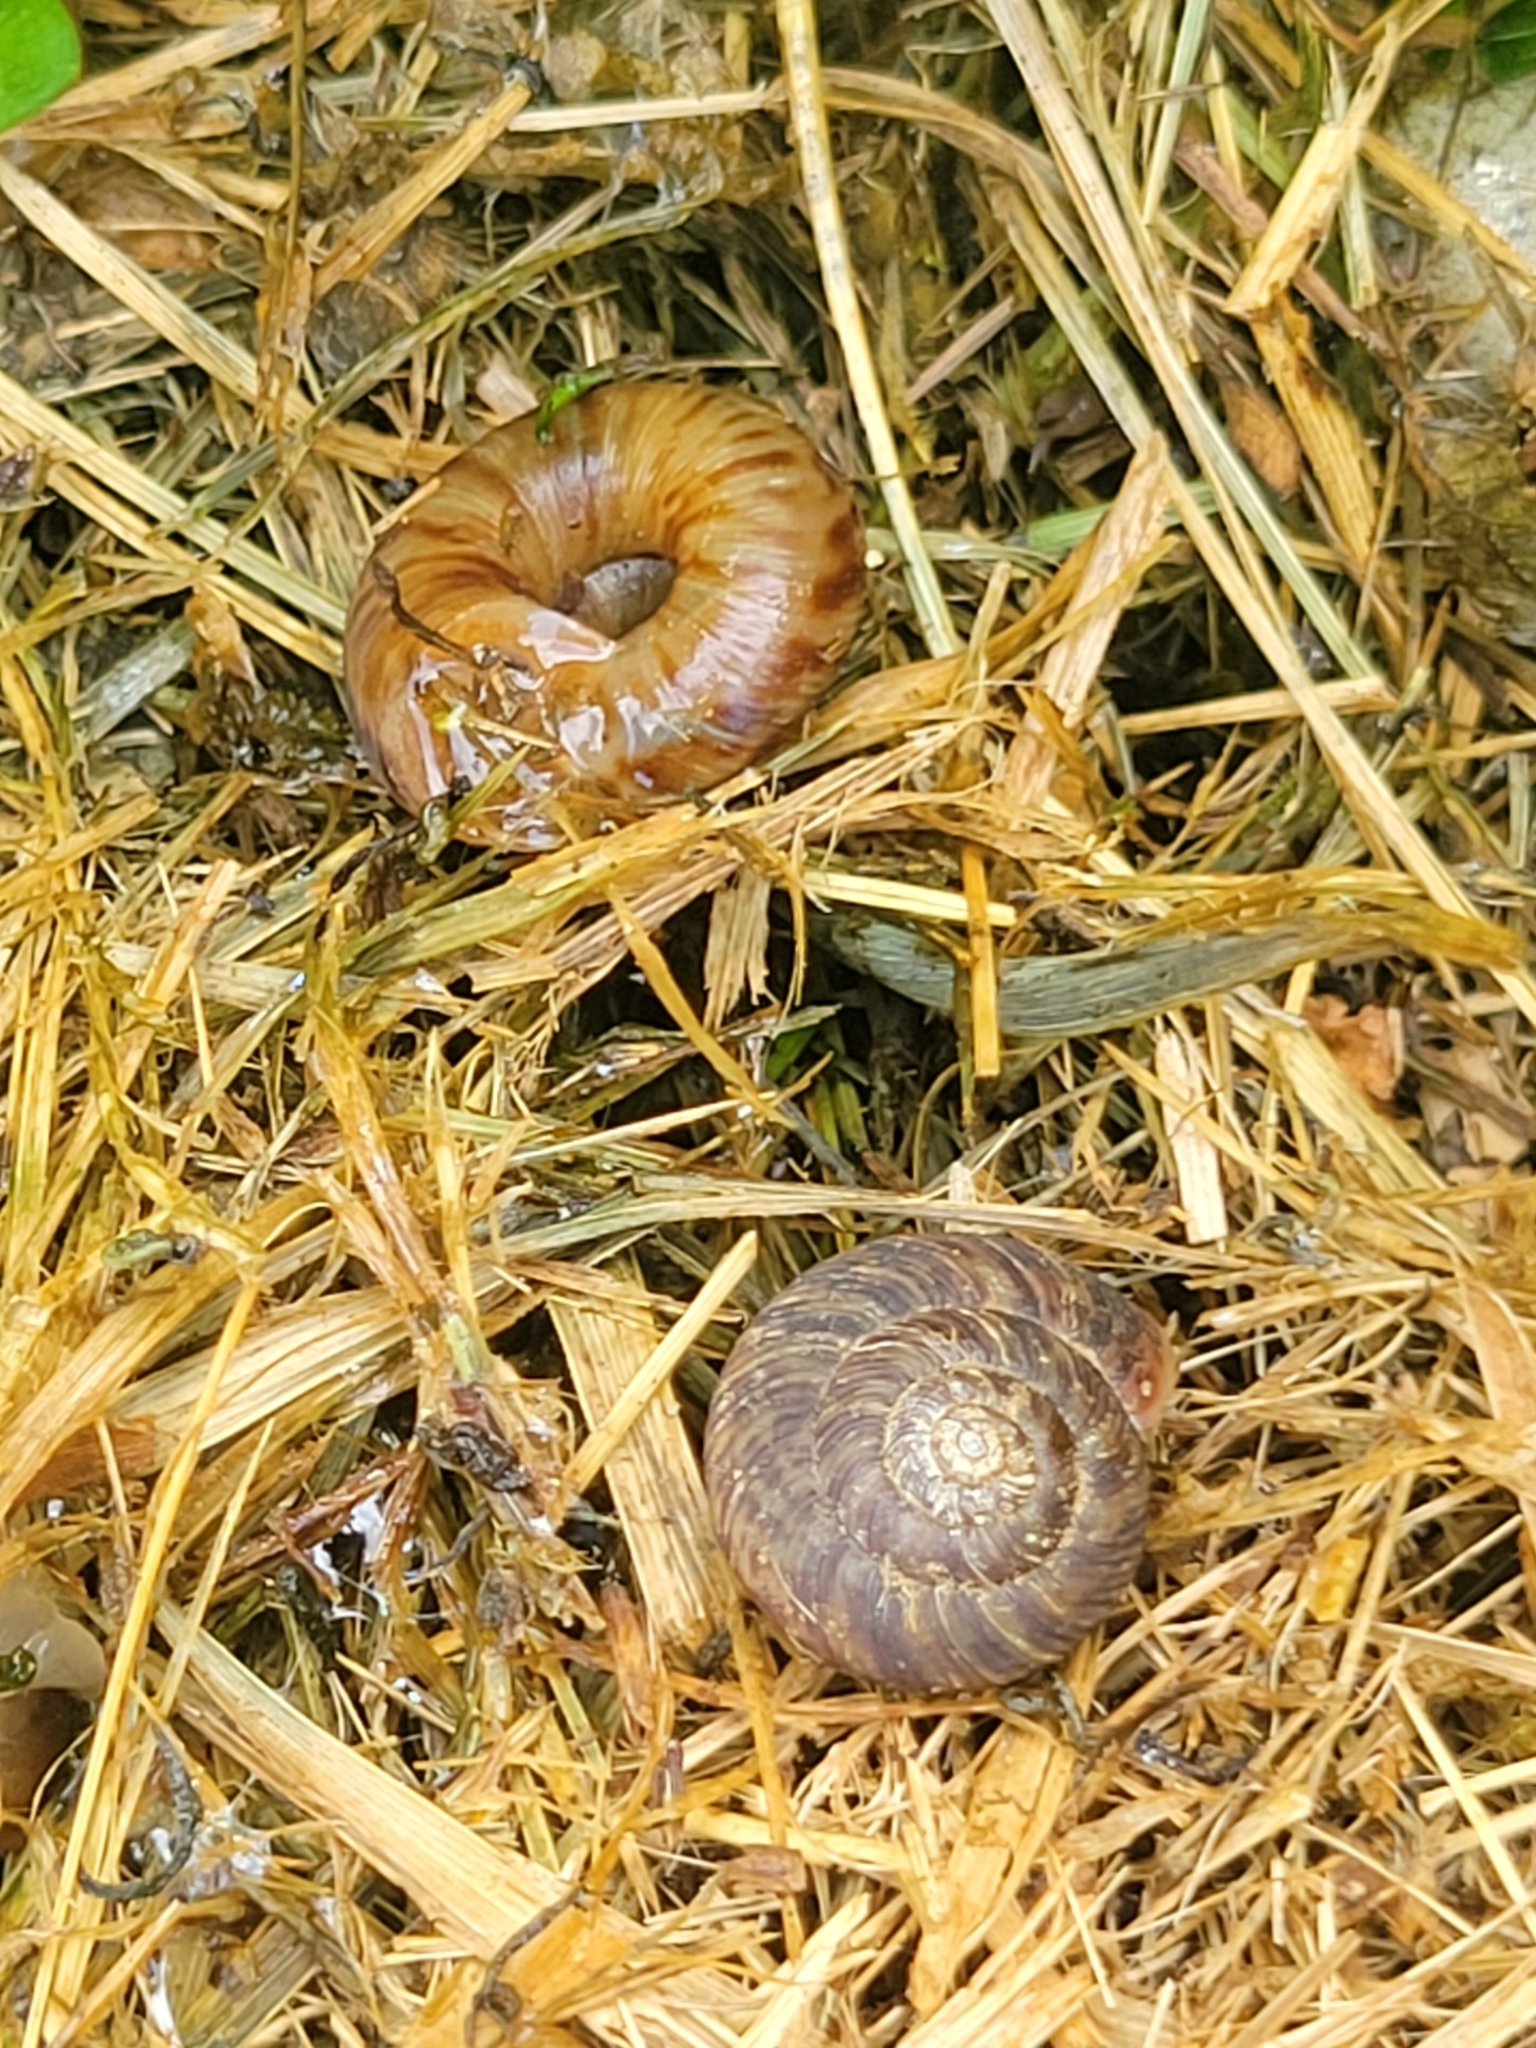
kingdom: Animalia
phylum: Mollusca
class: Gastropoda
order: Stylommatophora
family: Discidae
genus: Anguispira
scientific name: Anguispira alternata
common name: Flamed tigersnail
